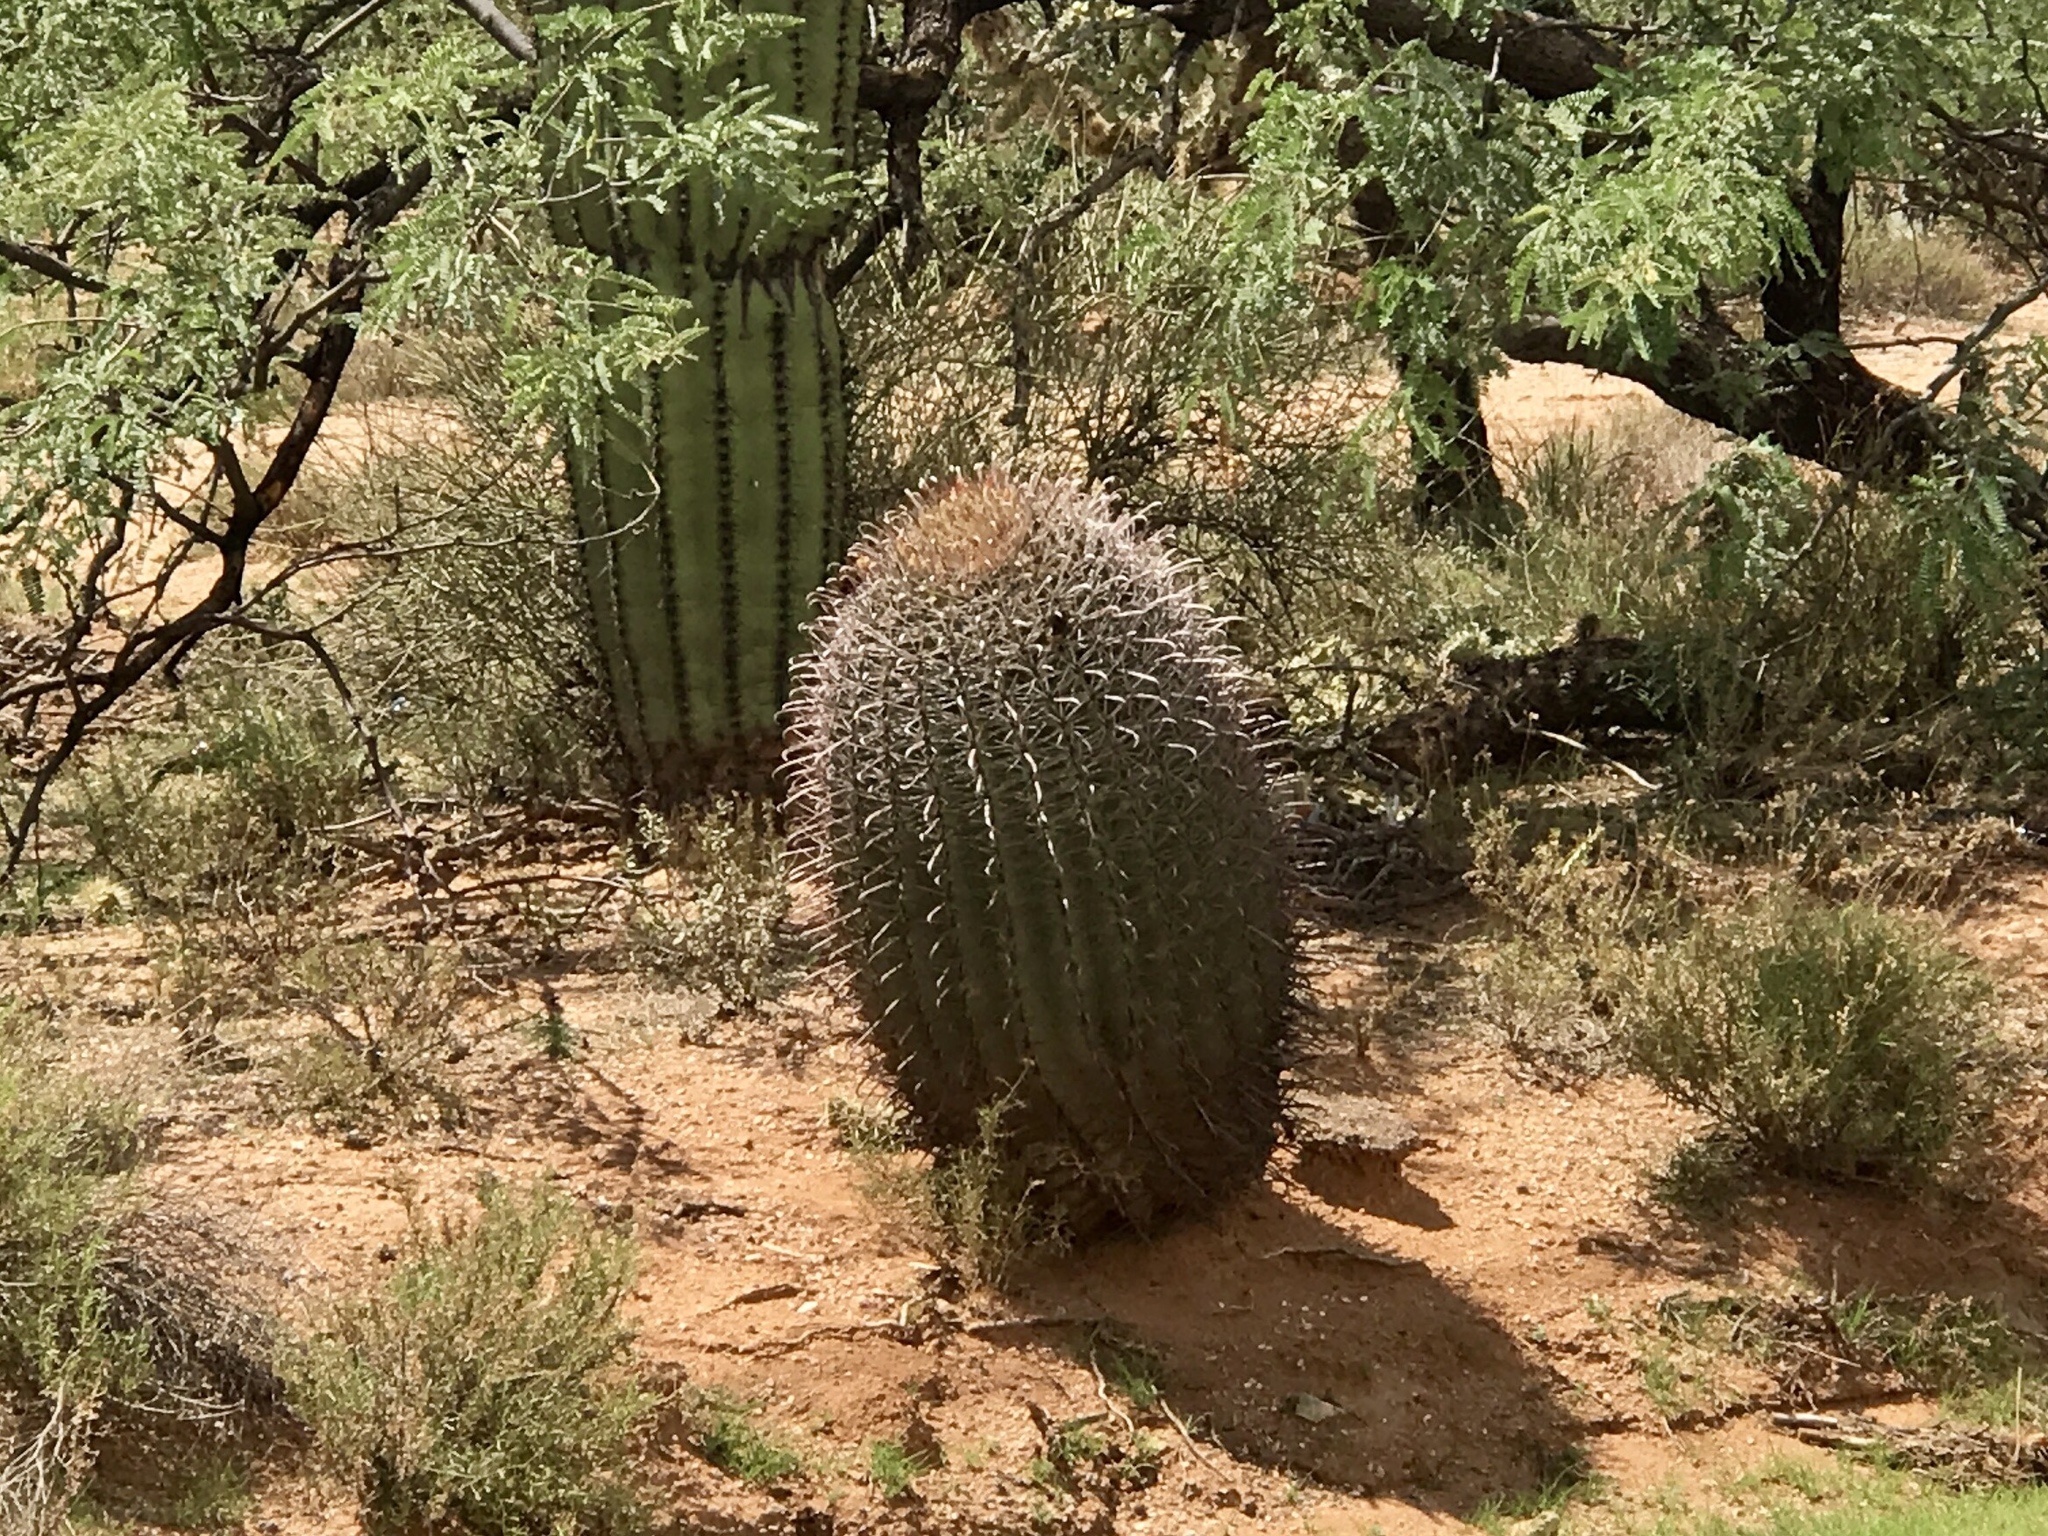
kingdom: Plantae
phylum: Tracheophyta
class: Magnoliopsida
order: Caryophyllales
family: Cactaceae
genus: Ferocactus
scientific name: Ferocactus wislizeni
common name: Candy barrel cactus
